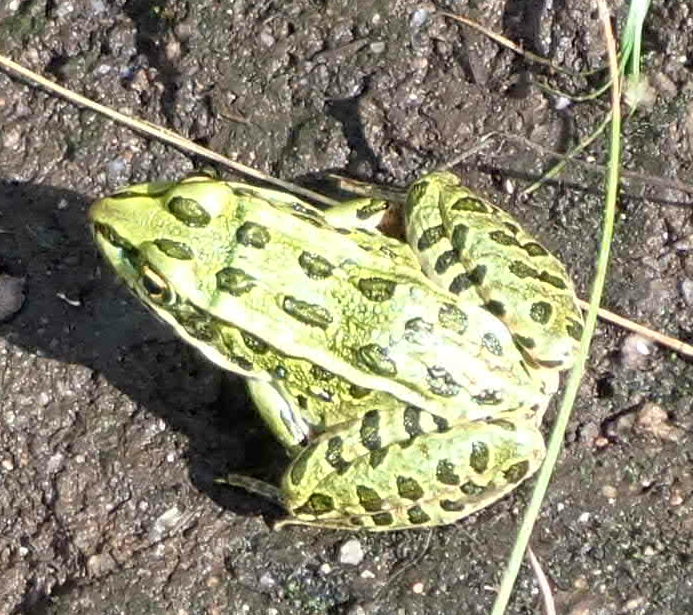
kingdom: Animalia
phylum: Chordata
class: Amphibia
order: Anura
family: Ranidae
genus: Lithobates
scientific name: Lithobates pipiens
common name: Northern leopard frog
